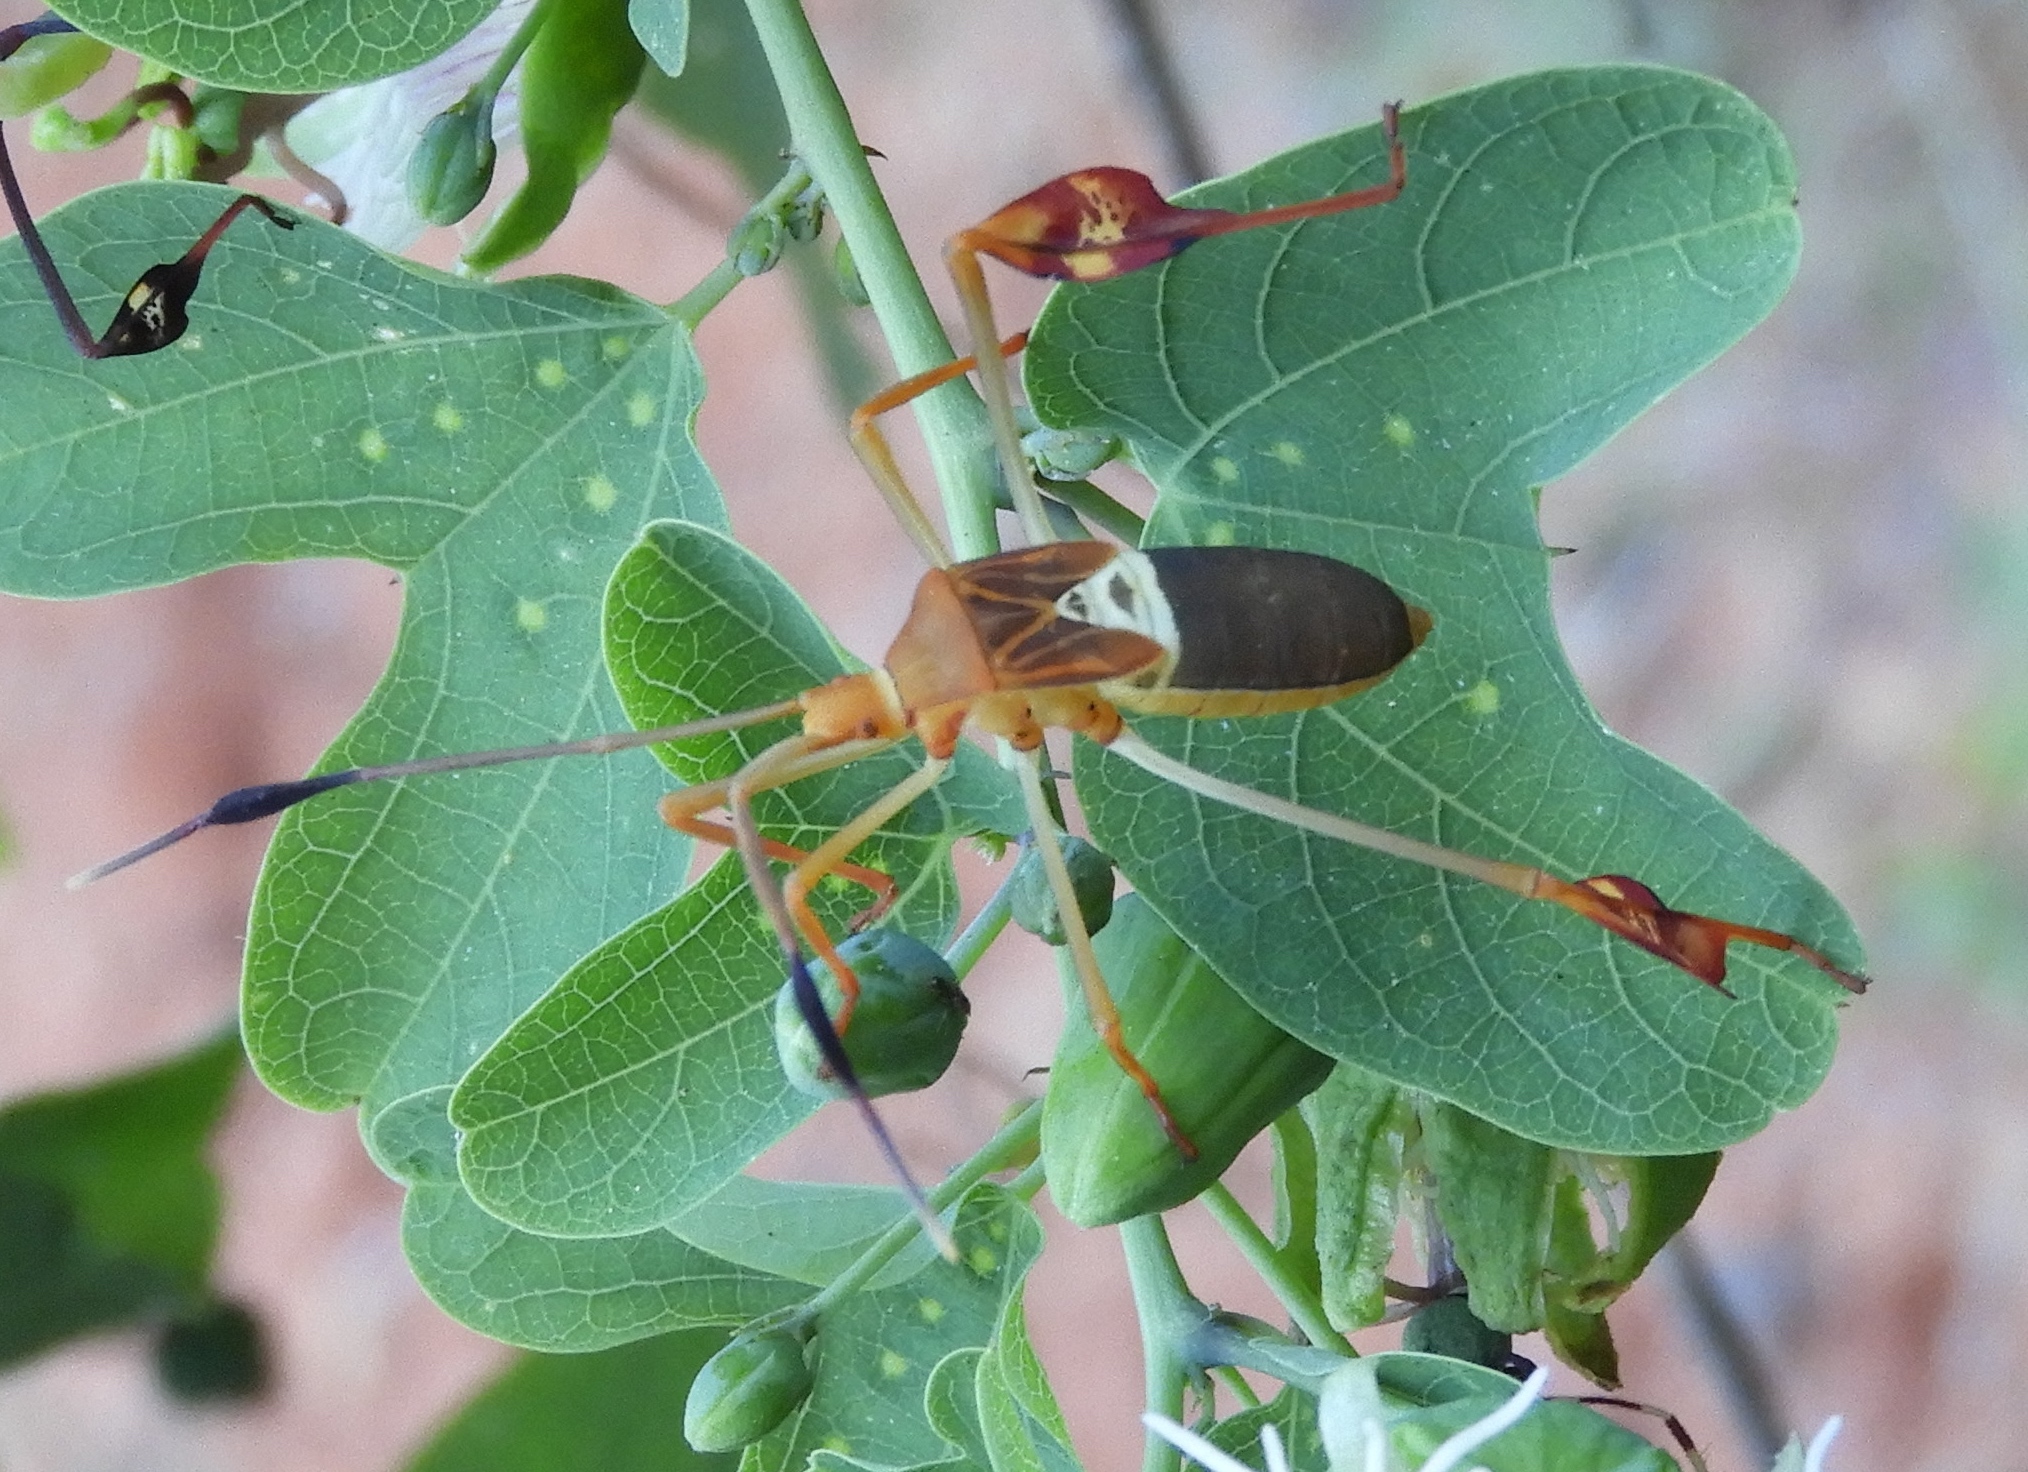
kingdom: Animalia
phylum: Arthropoda
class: Insecta
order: Hemiptera
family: Coreidae
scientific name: Coreidae
